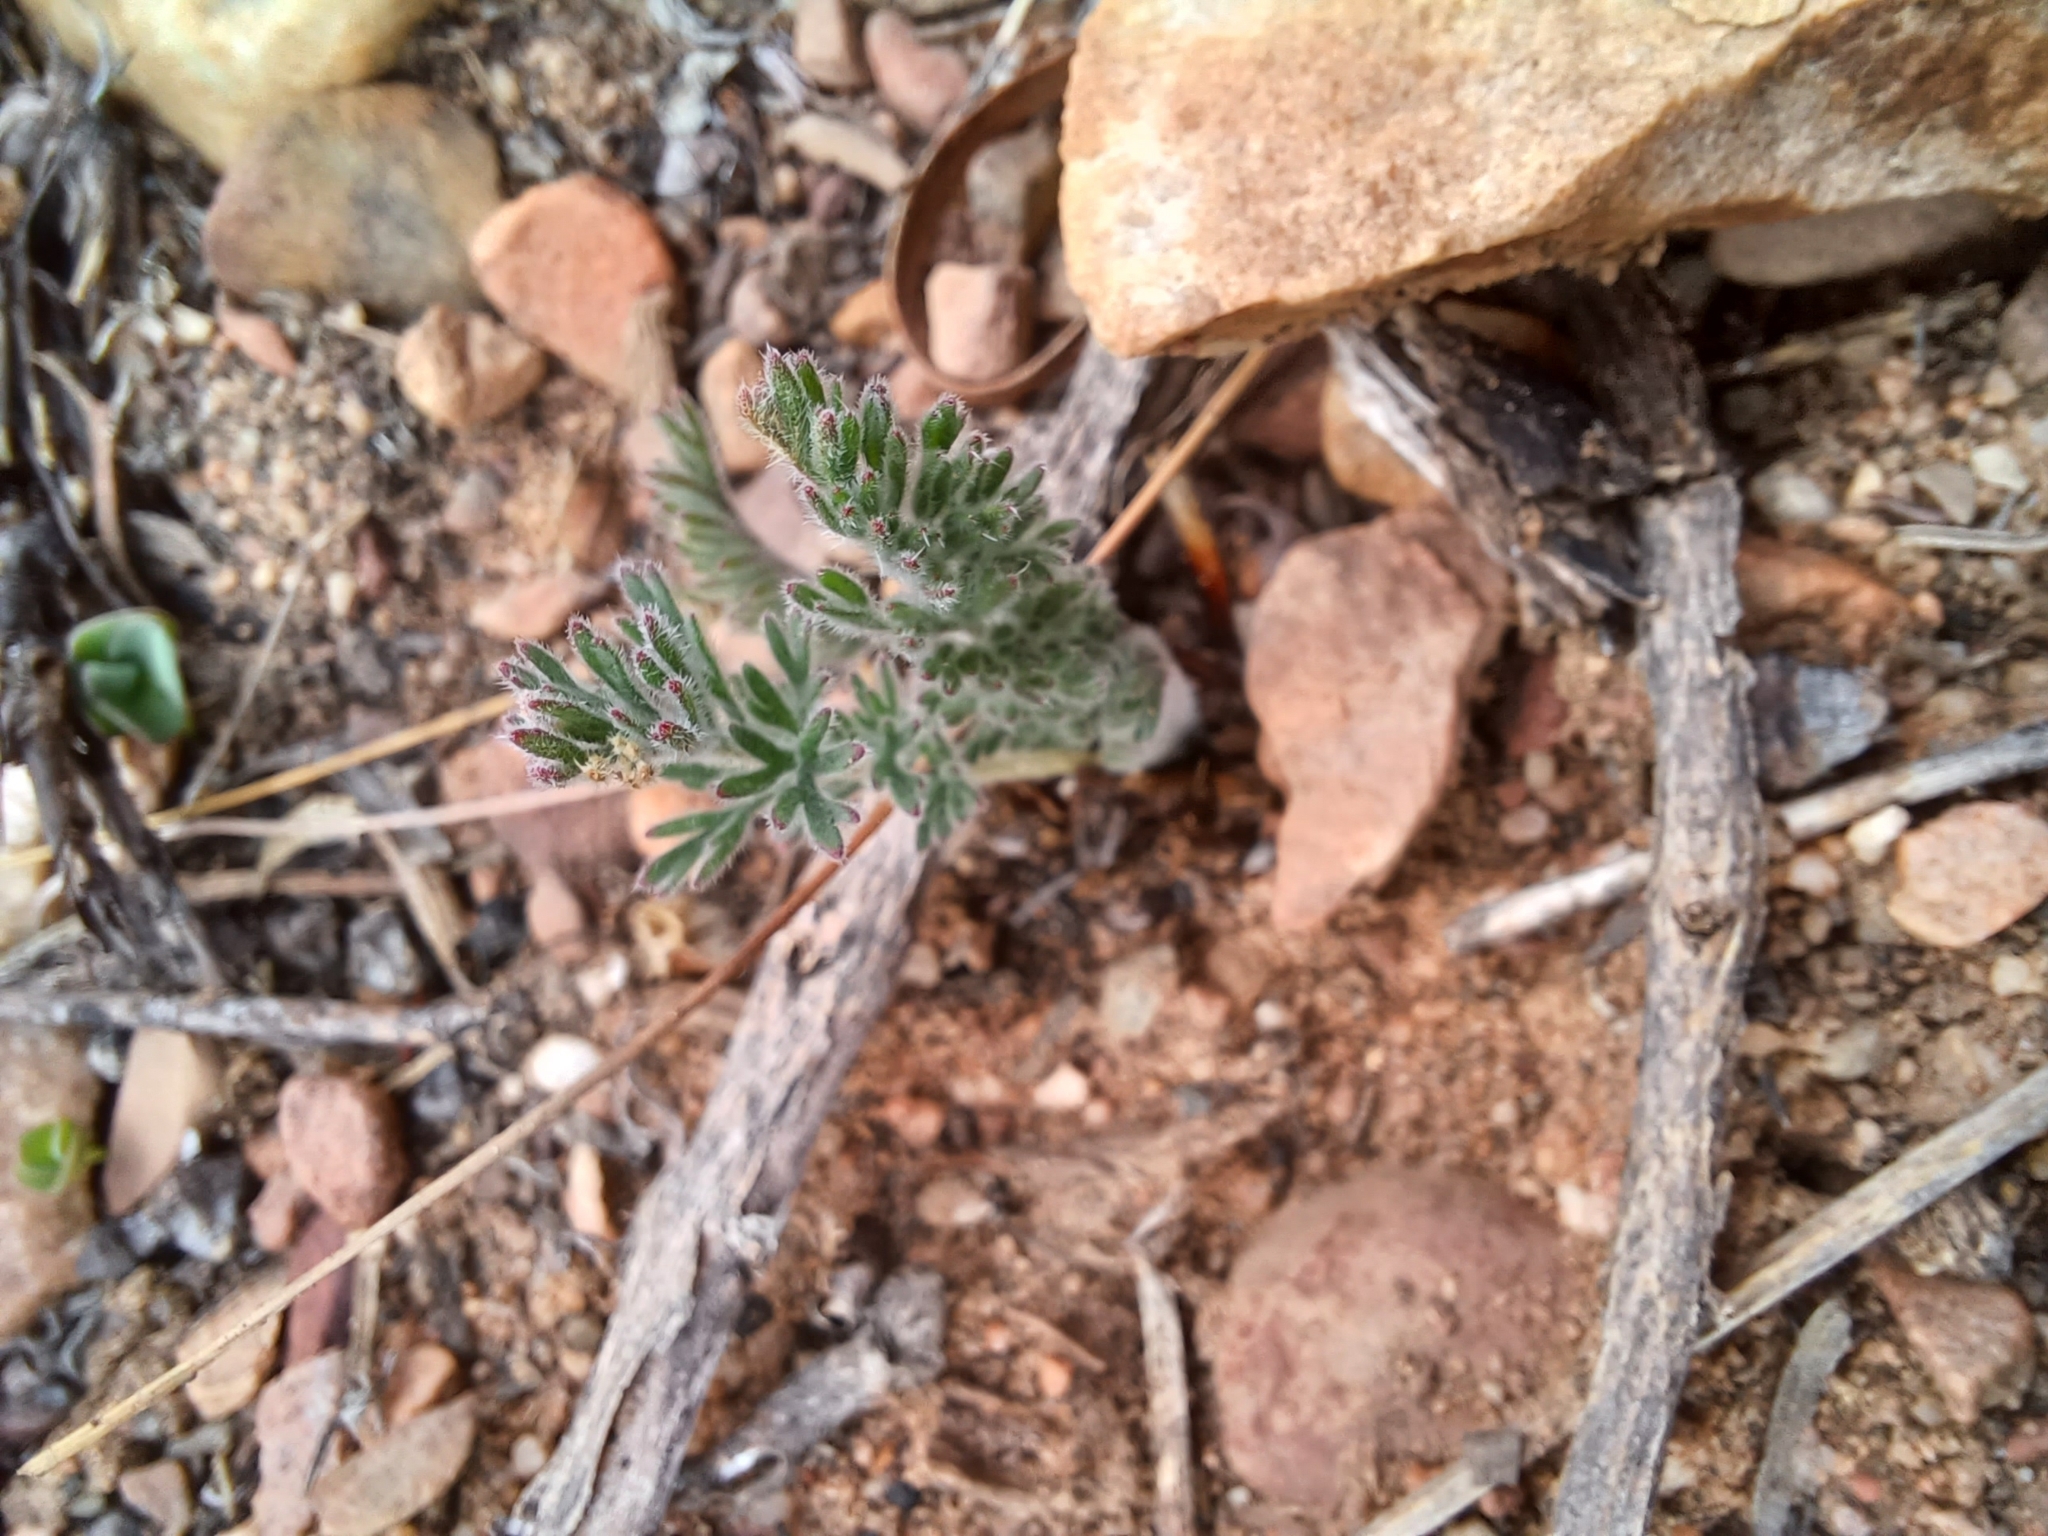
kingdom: Plantae
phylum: Tracheophyta
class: Magnoliopsida
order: Geraniales
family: Geraniaceae
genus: Pelargonium
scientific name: Pelargonium rapaceum
